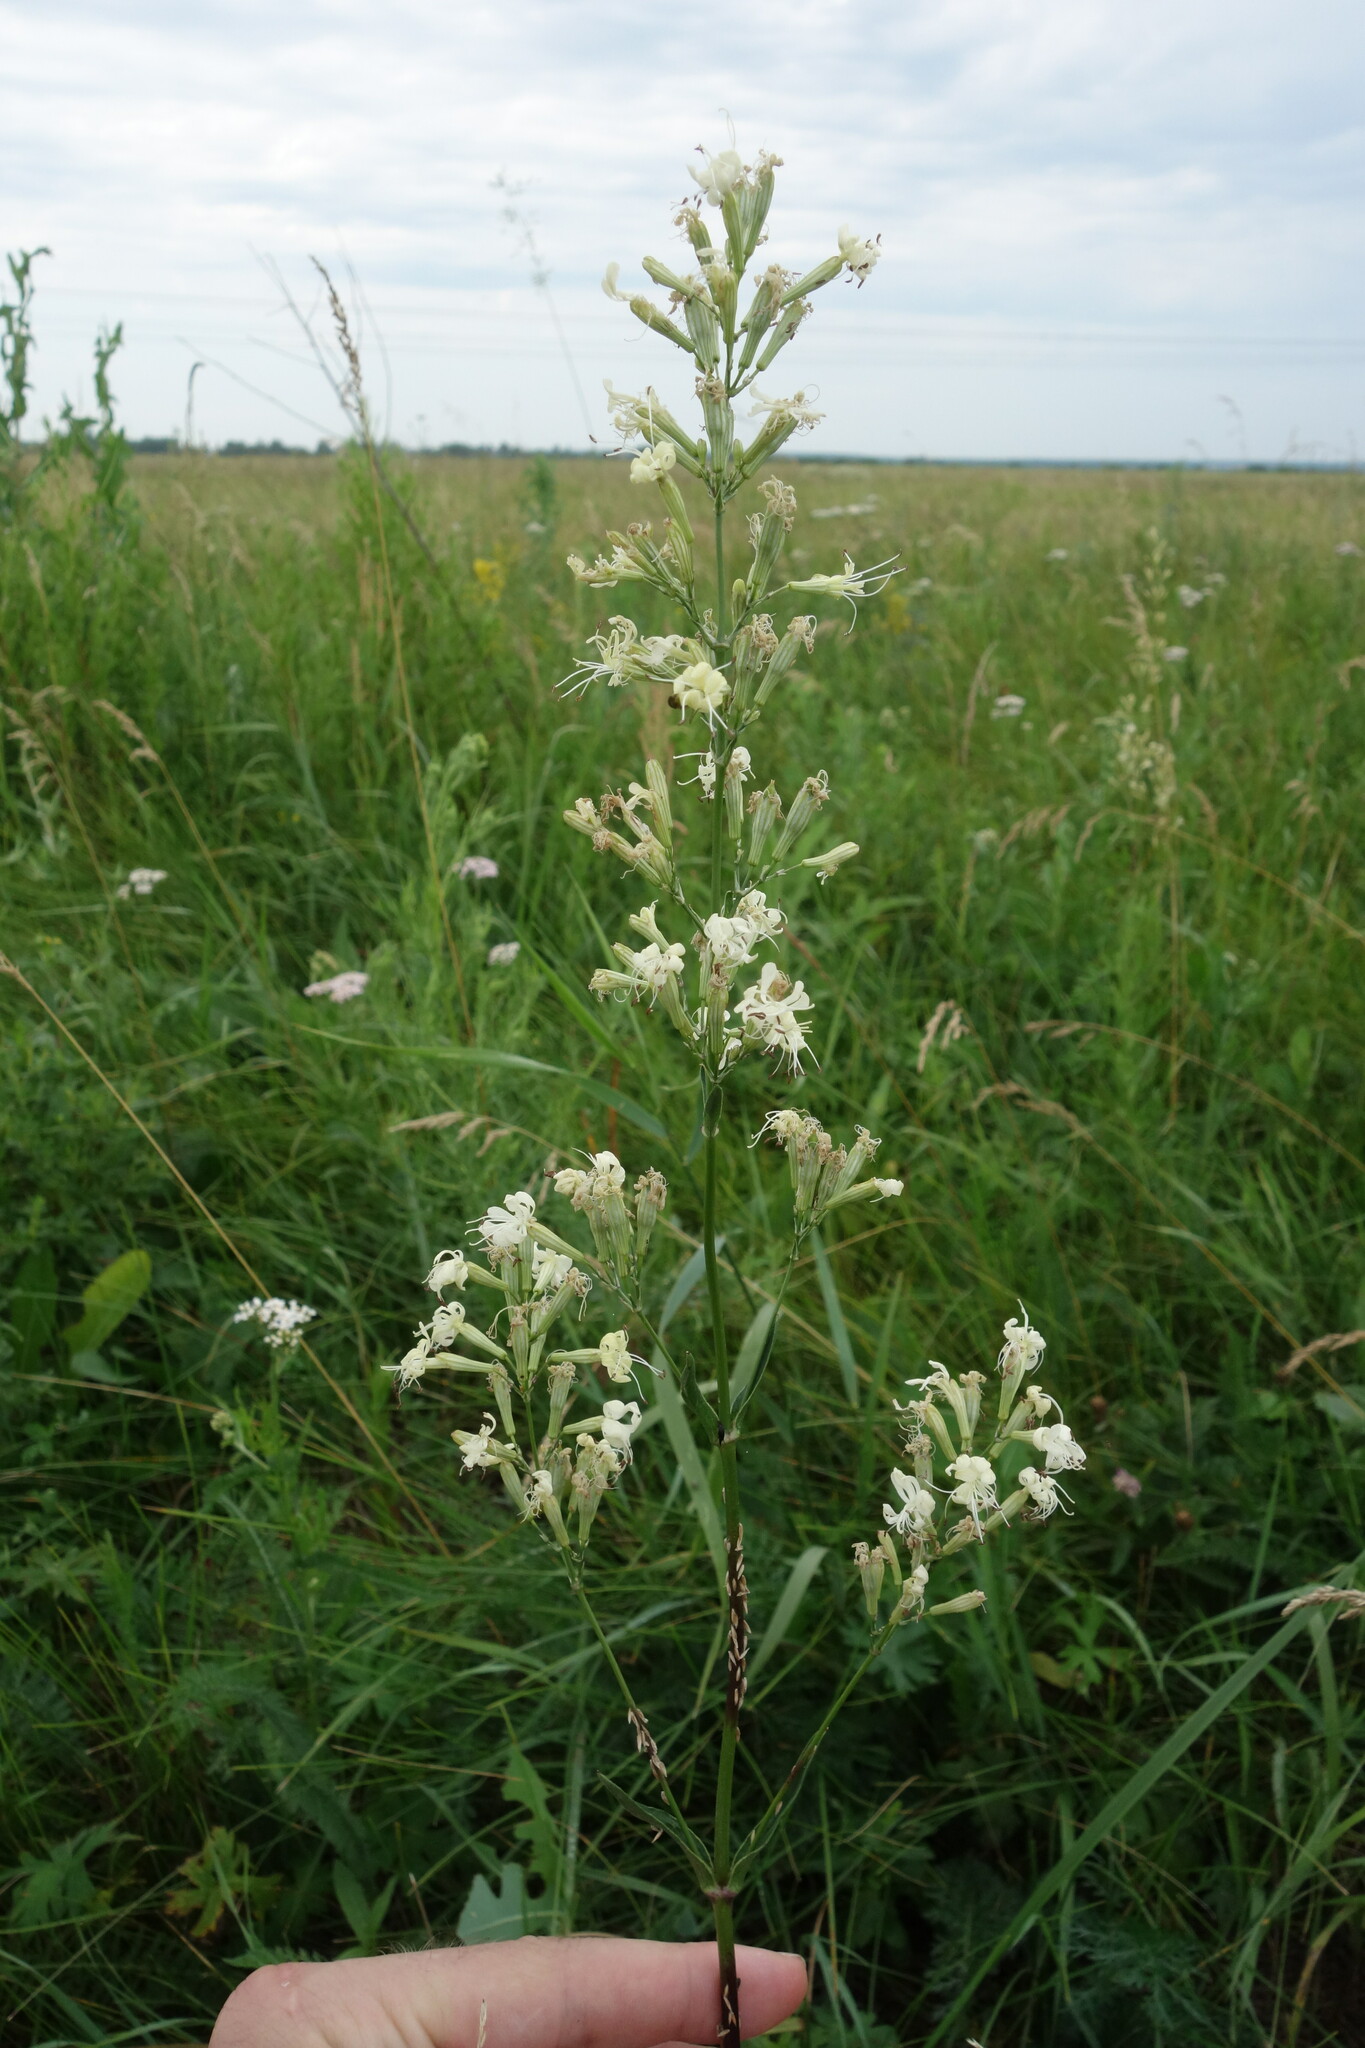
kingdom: Plantae
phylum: Tracheophyta
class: Magnoliopsida
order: Caryophyllales
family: Caryophyllaceae
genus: Silene
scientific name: Silene multiflora
